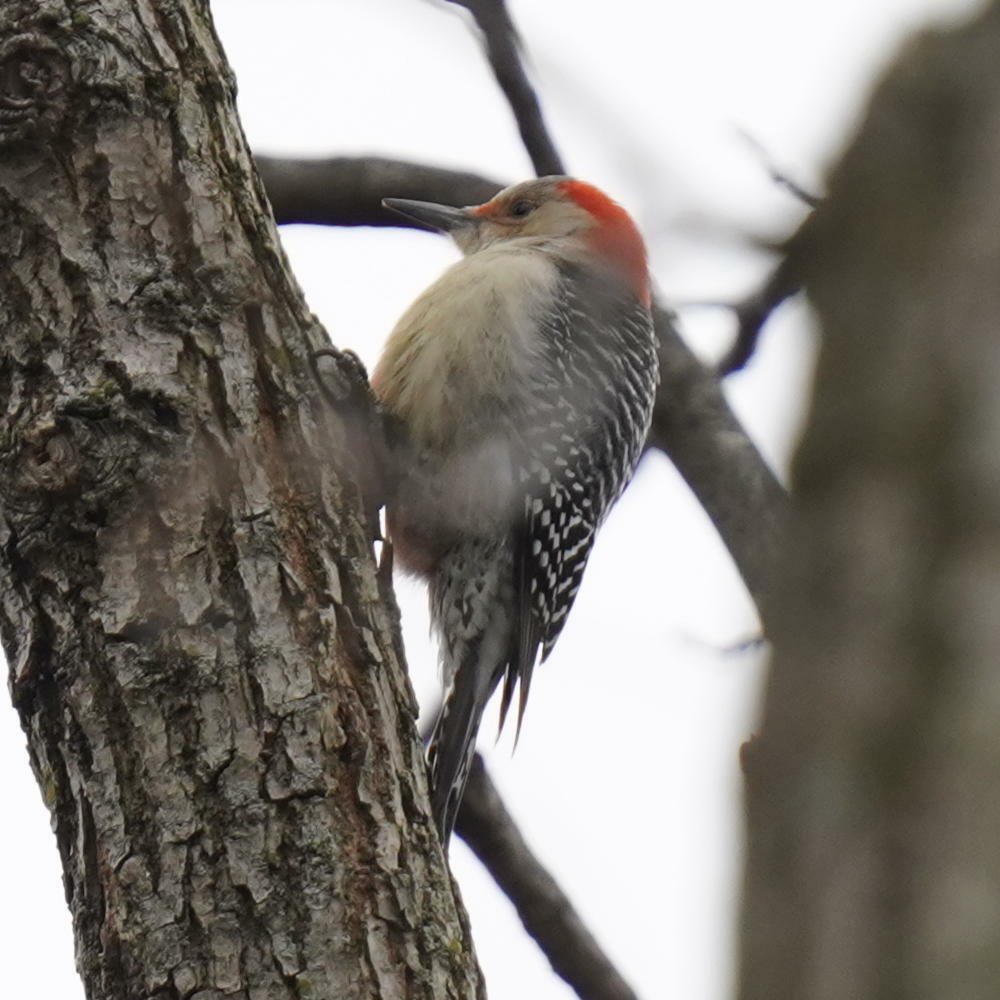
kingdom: Animalia
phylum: Chordata
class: Aves
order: Piciformes
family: Picidae
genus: Melanerpes
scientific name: Melanerpes carolinus
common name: Red-bellied woodpecker
